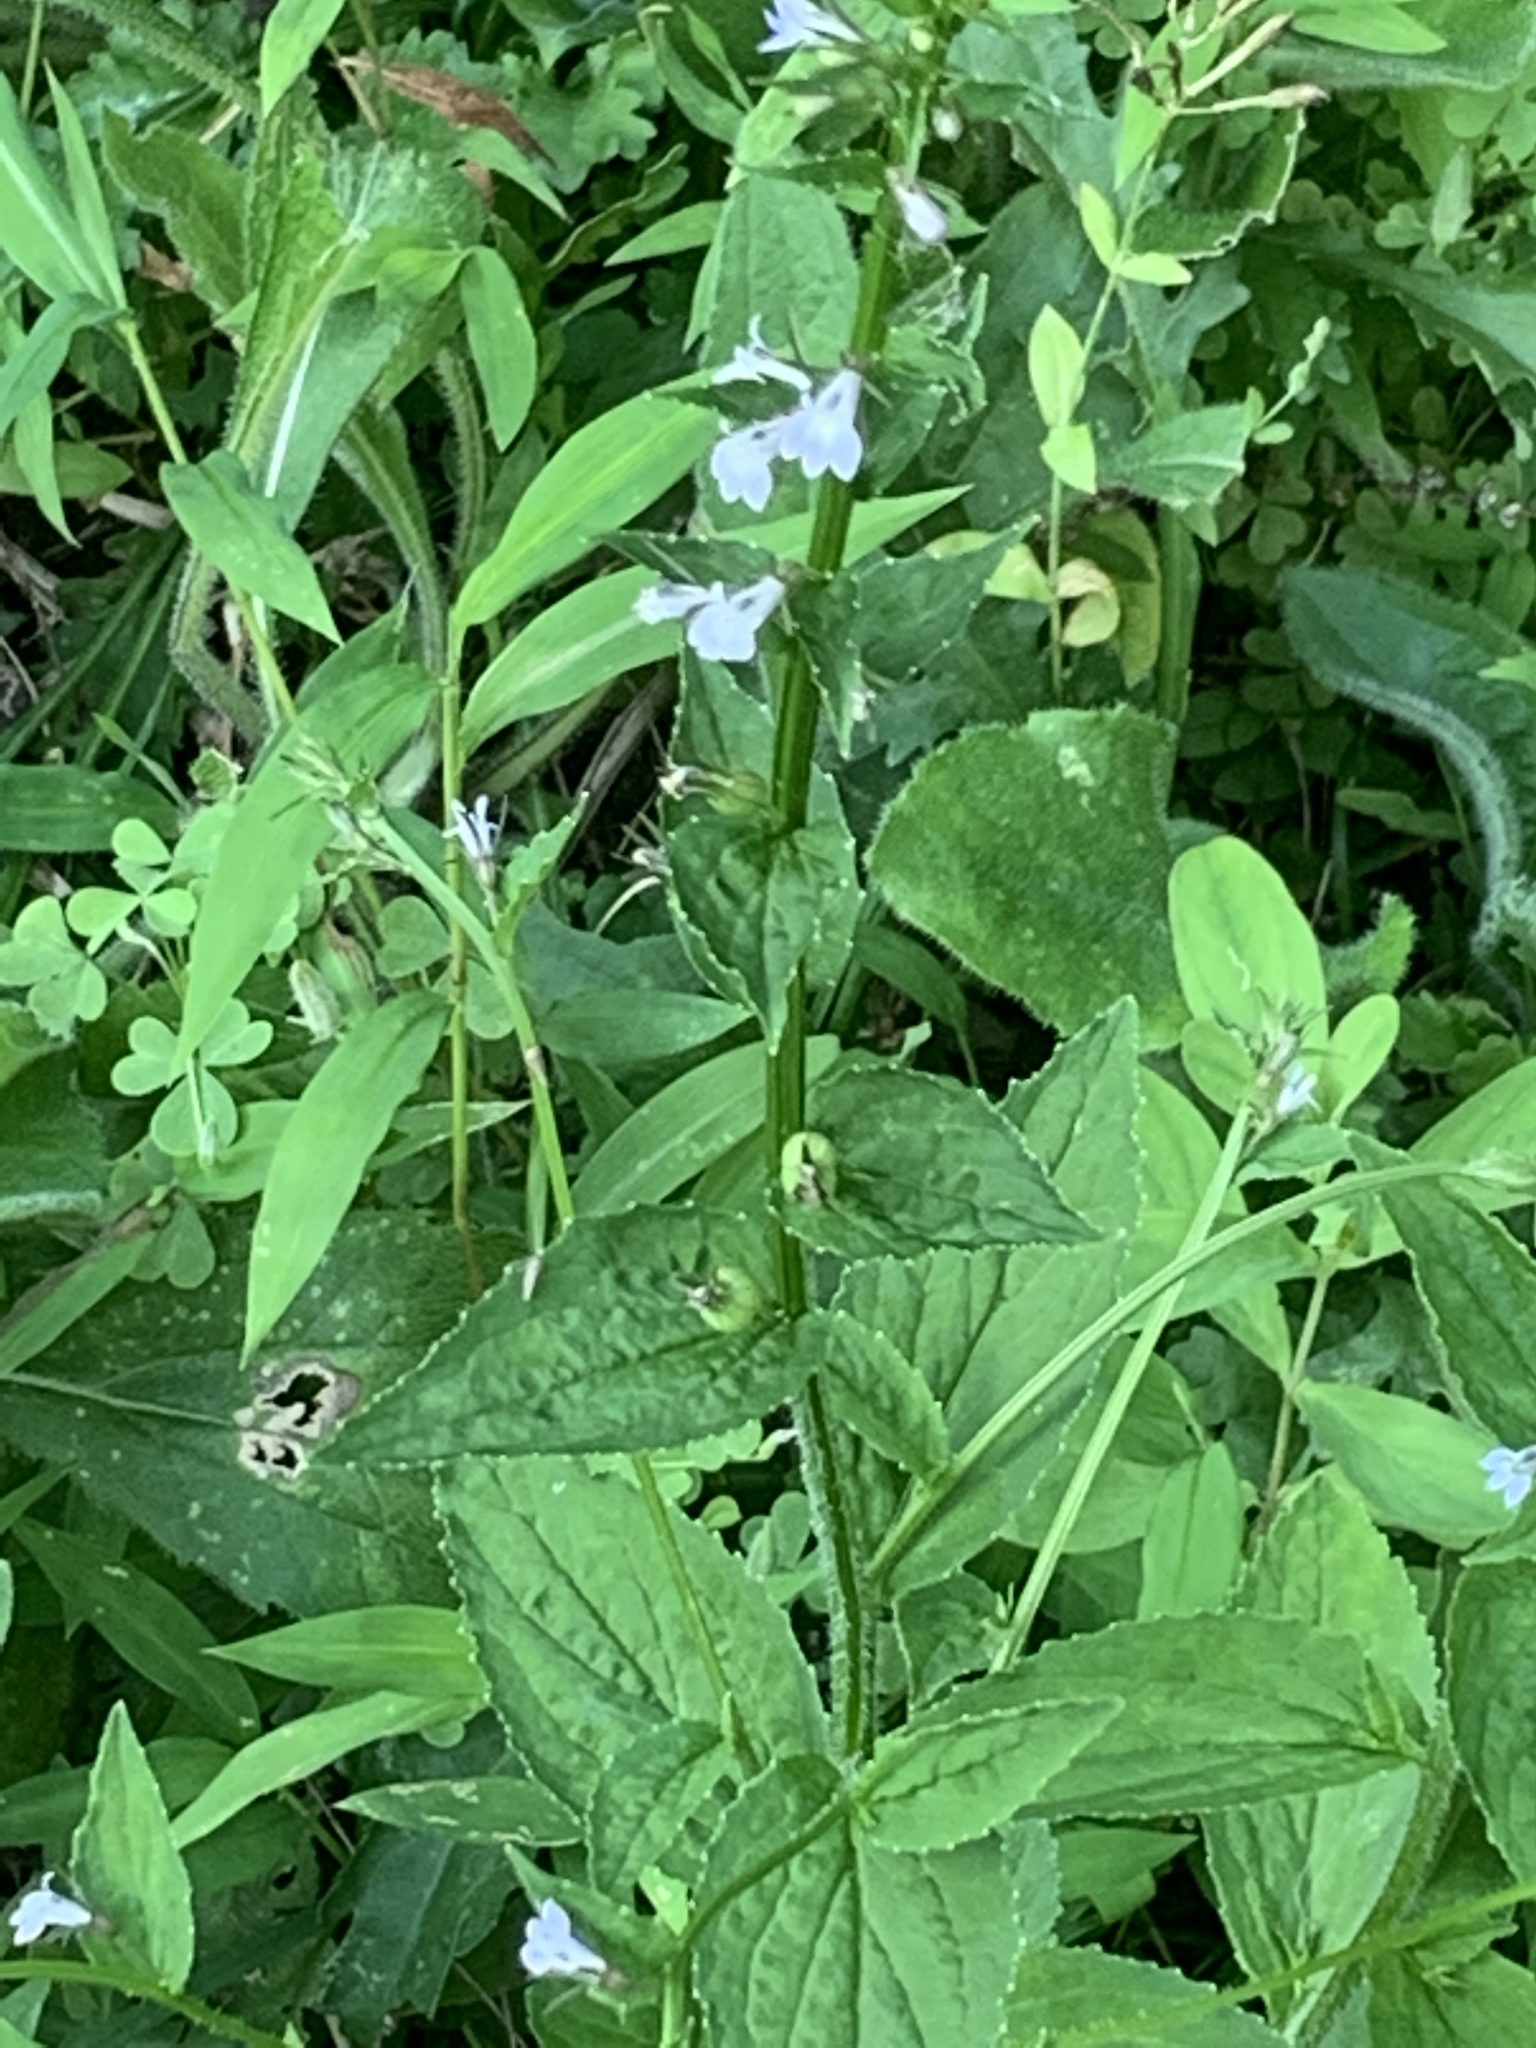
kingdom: Plantae
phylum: Tracheophyta
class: Magnoliopsida
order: Asterales
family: Campanulaceae
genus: Lobelia
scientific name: Lobelia inflata
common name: Indian tobacco
